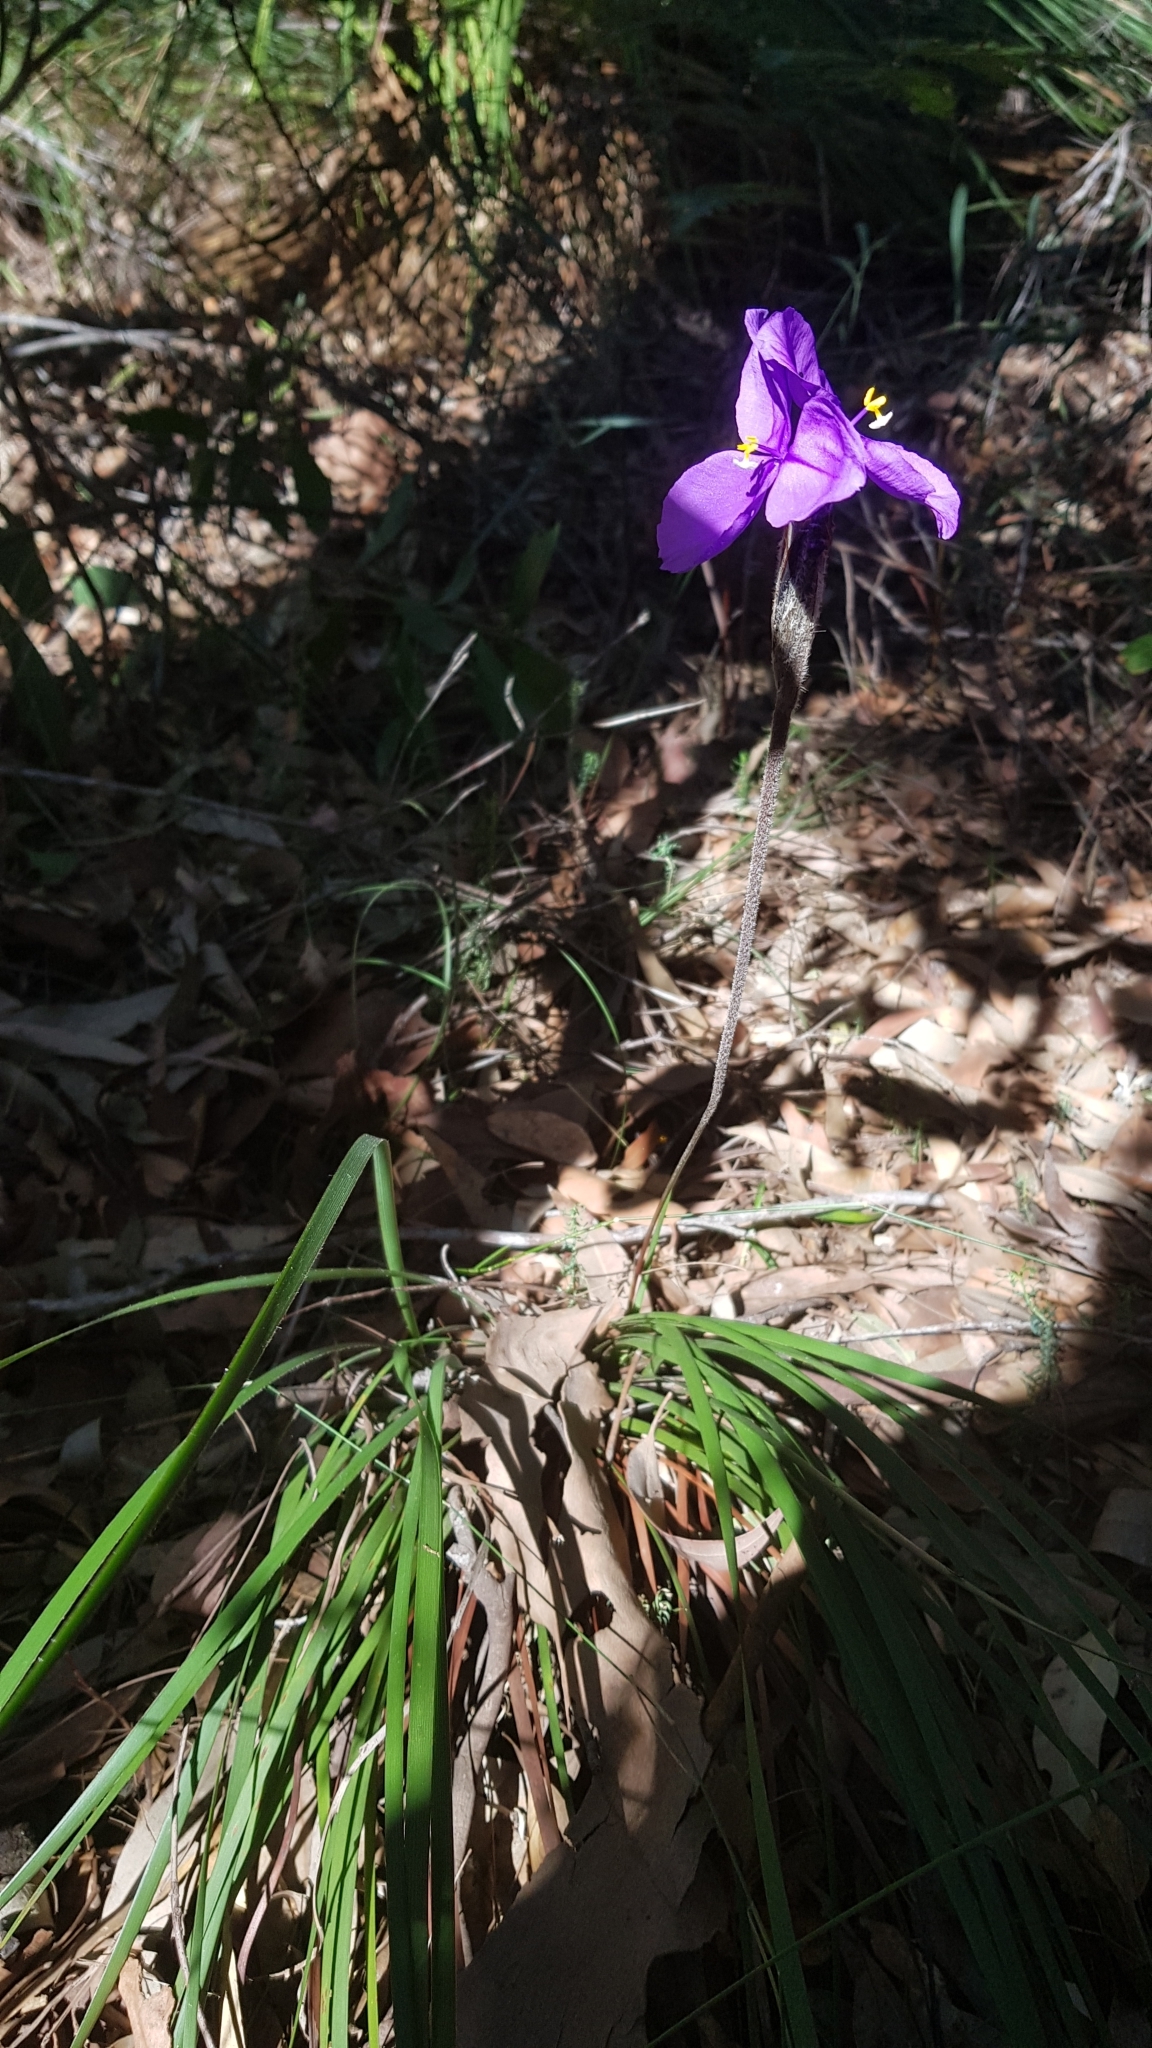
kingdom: Plantae
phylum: Tracheophyta
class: Liliopsida
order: Asparagales
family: Iridaceae
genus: Patersonia
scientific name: Patersonia sericea
